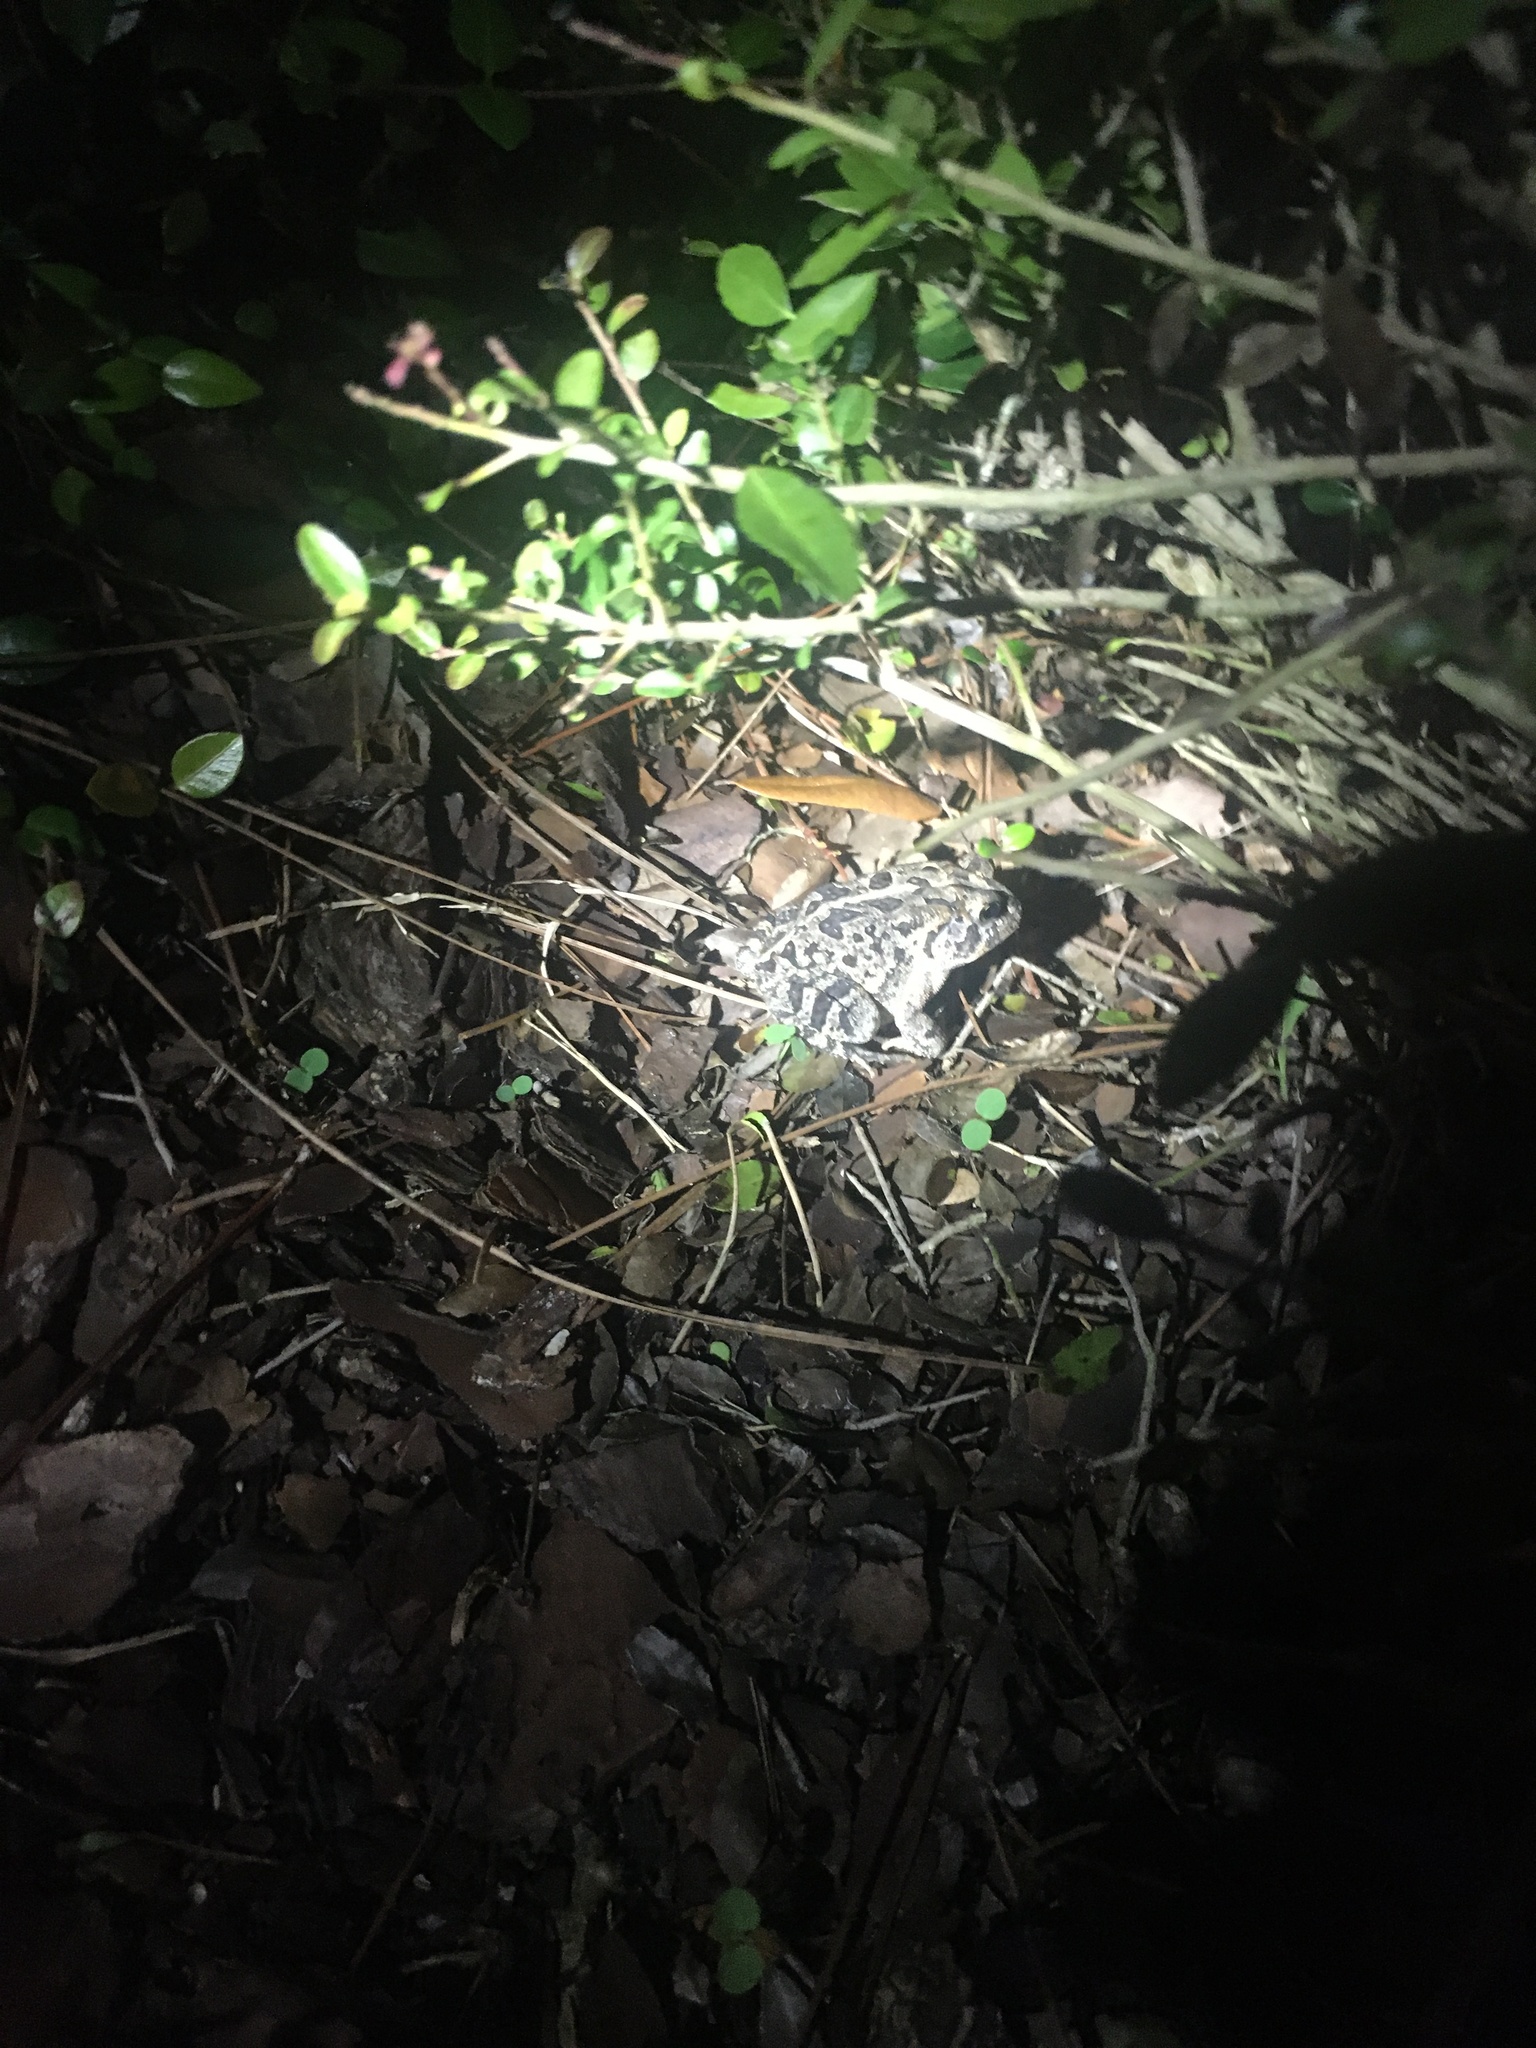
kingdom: Animalia
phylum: Chordata
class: Amphibia
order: Anura
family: Bufonidae
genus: Anaxyrus
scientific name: Anaxyrus terrestris
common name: Southern toad
